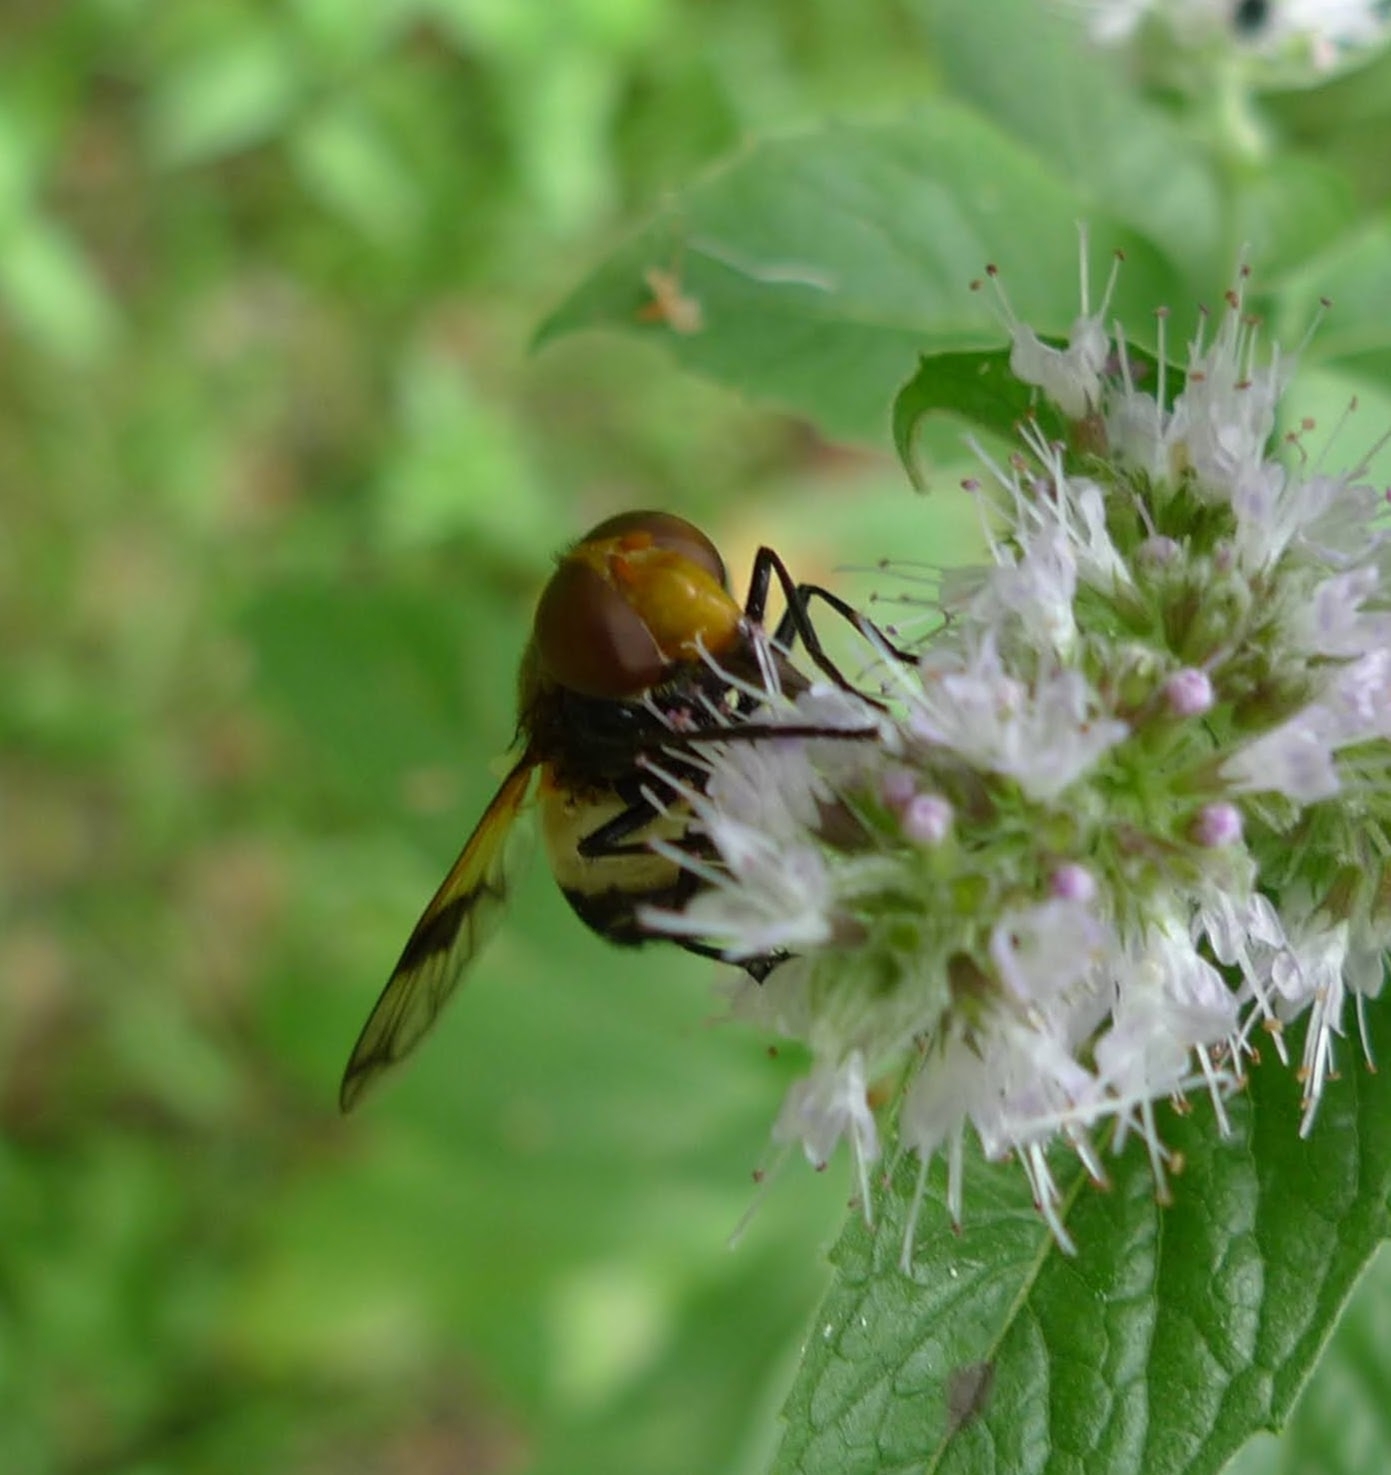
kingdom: Animalia
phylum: Arthropoda
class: Insecta
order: Diptera
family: Syrphidae
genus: Volucella
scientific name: Volucella pellucens
